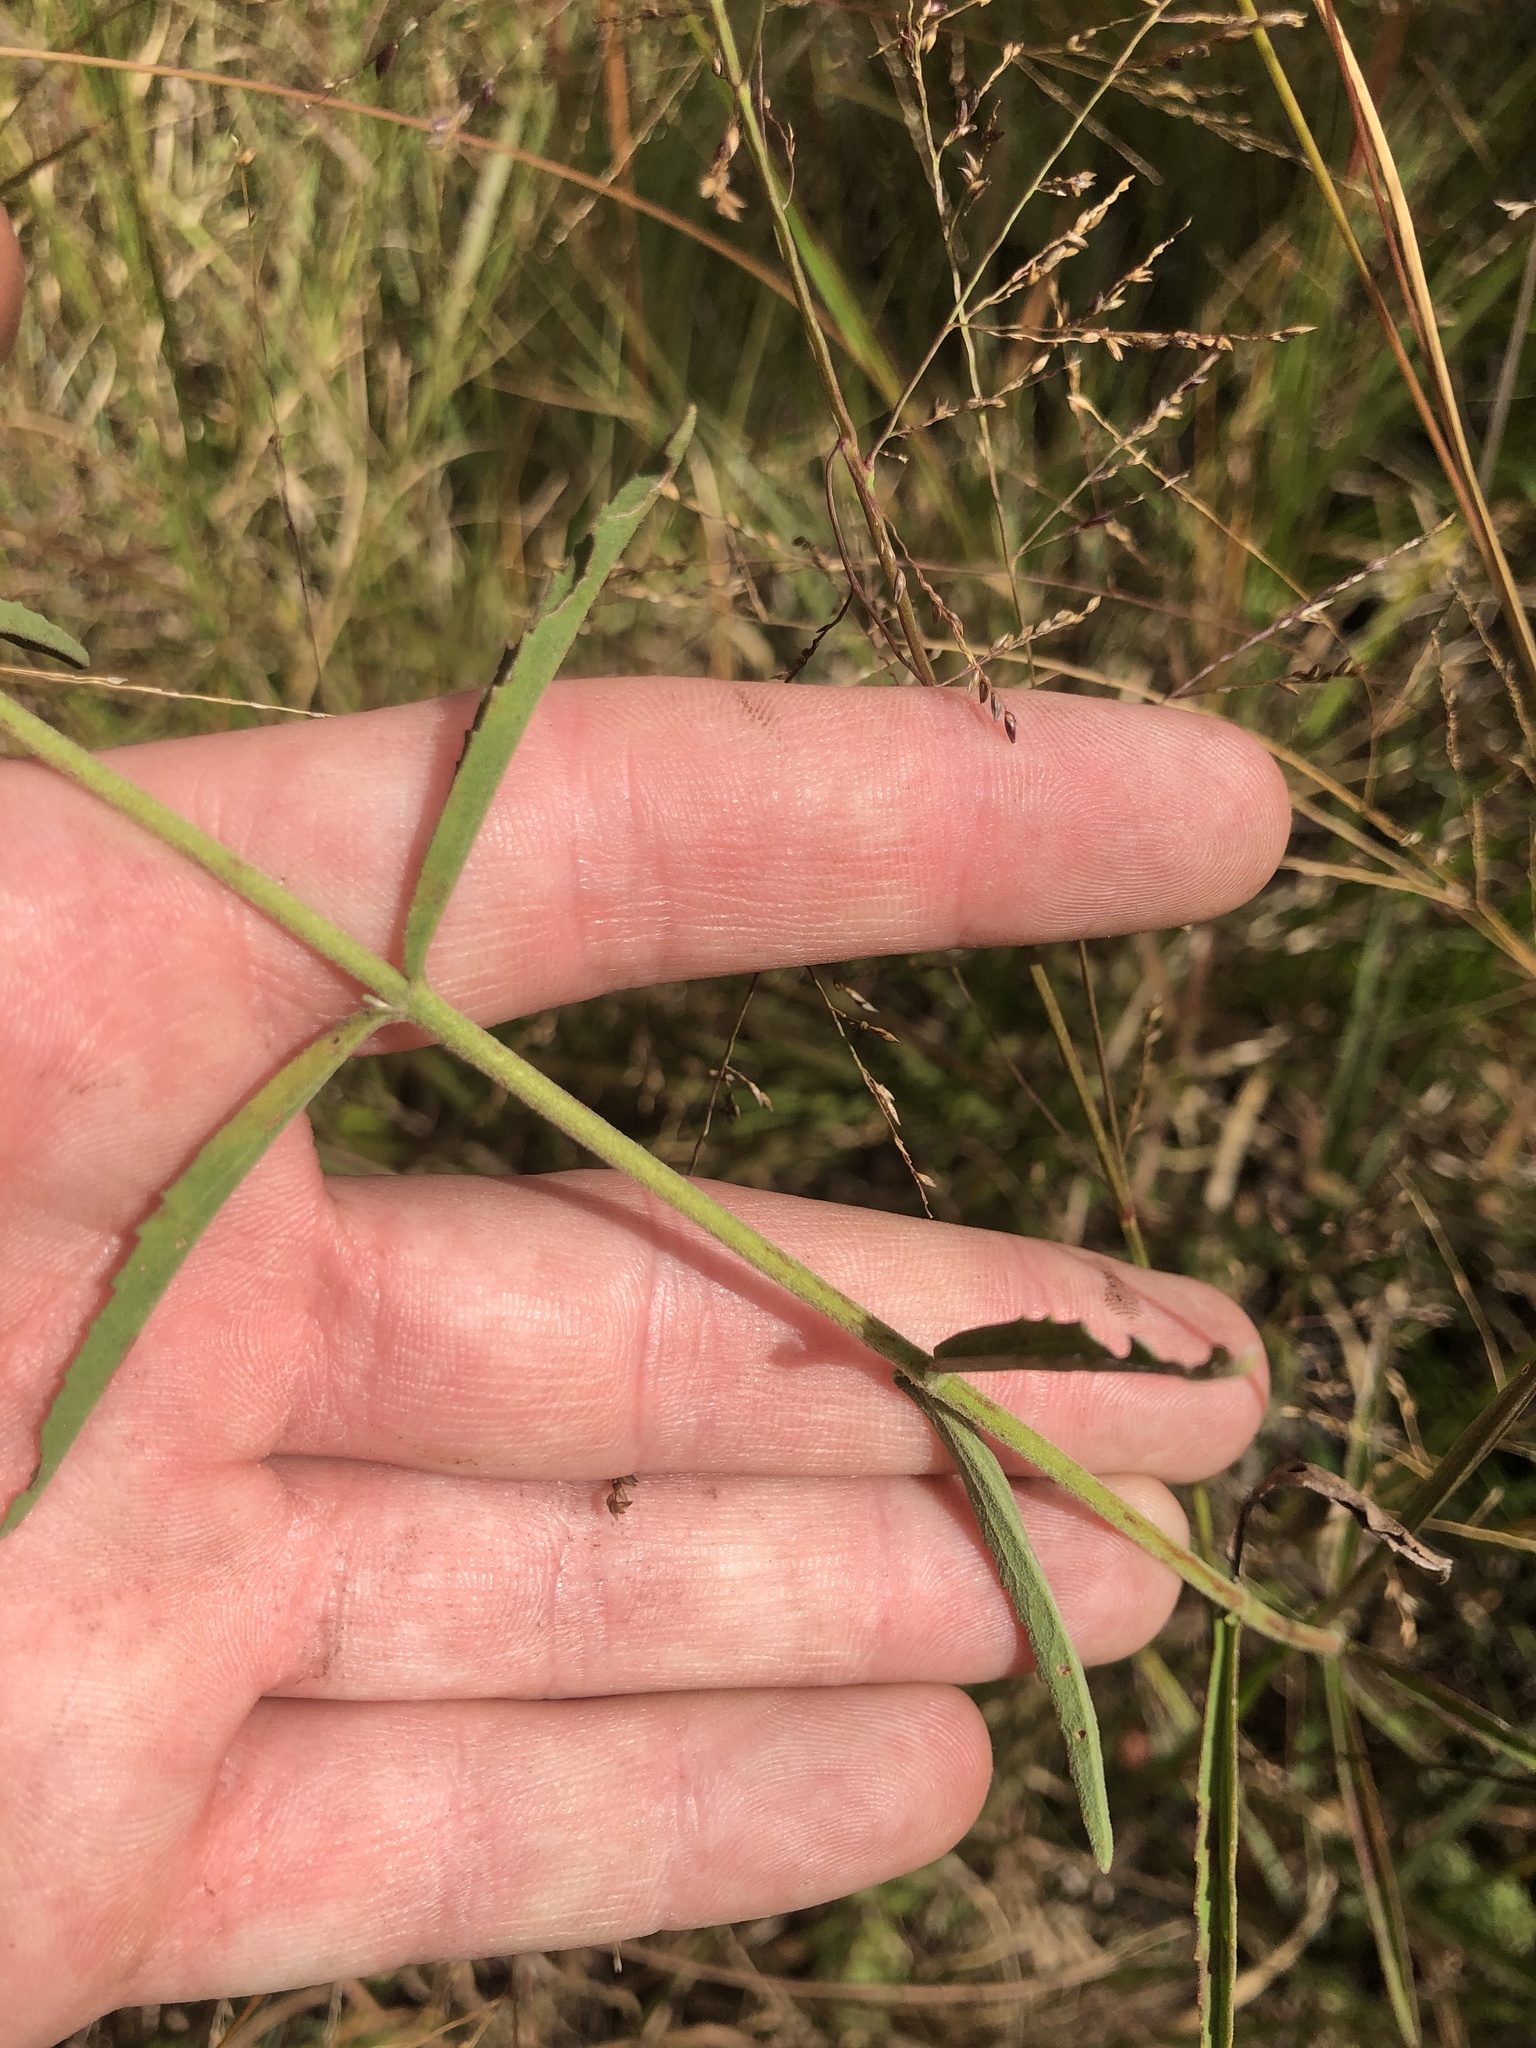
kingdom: Plantae
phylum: Tracheophyta
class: Magnoliopsida
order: Asterales
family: Asteraceae
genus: Eupatorium
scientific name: Eupatorium leucolepis
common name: Justiceweed
